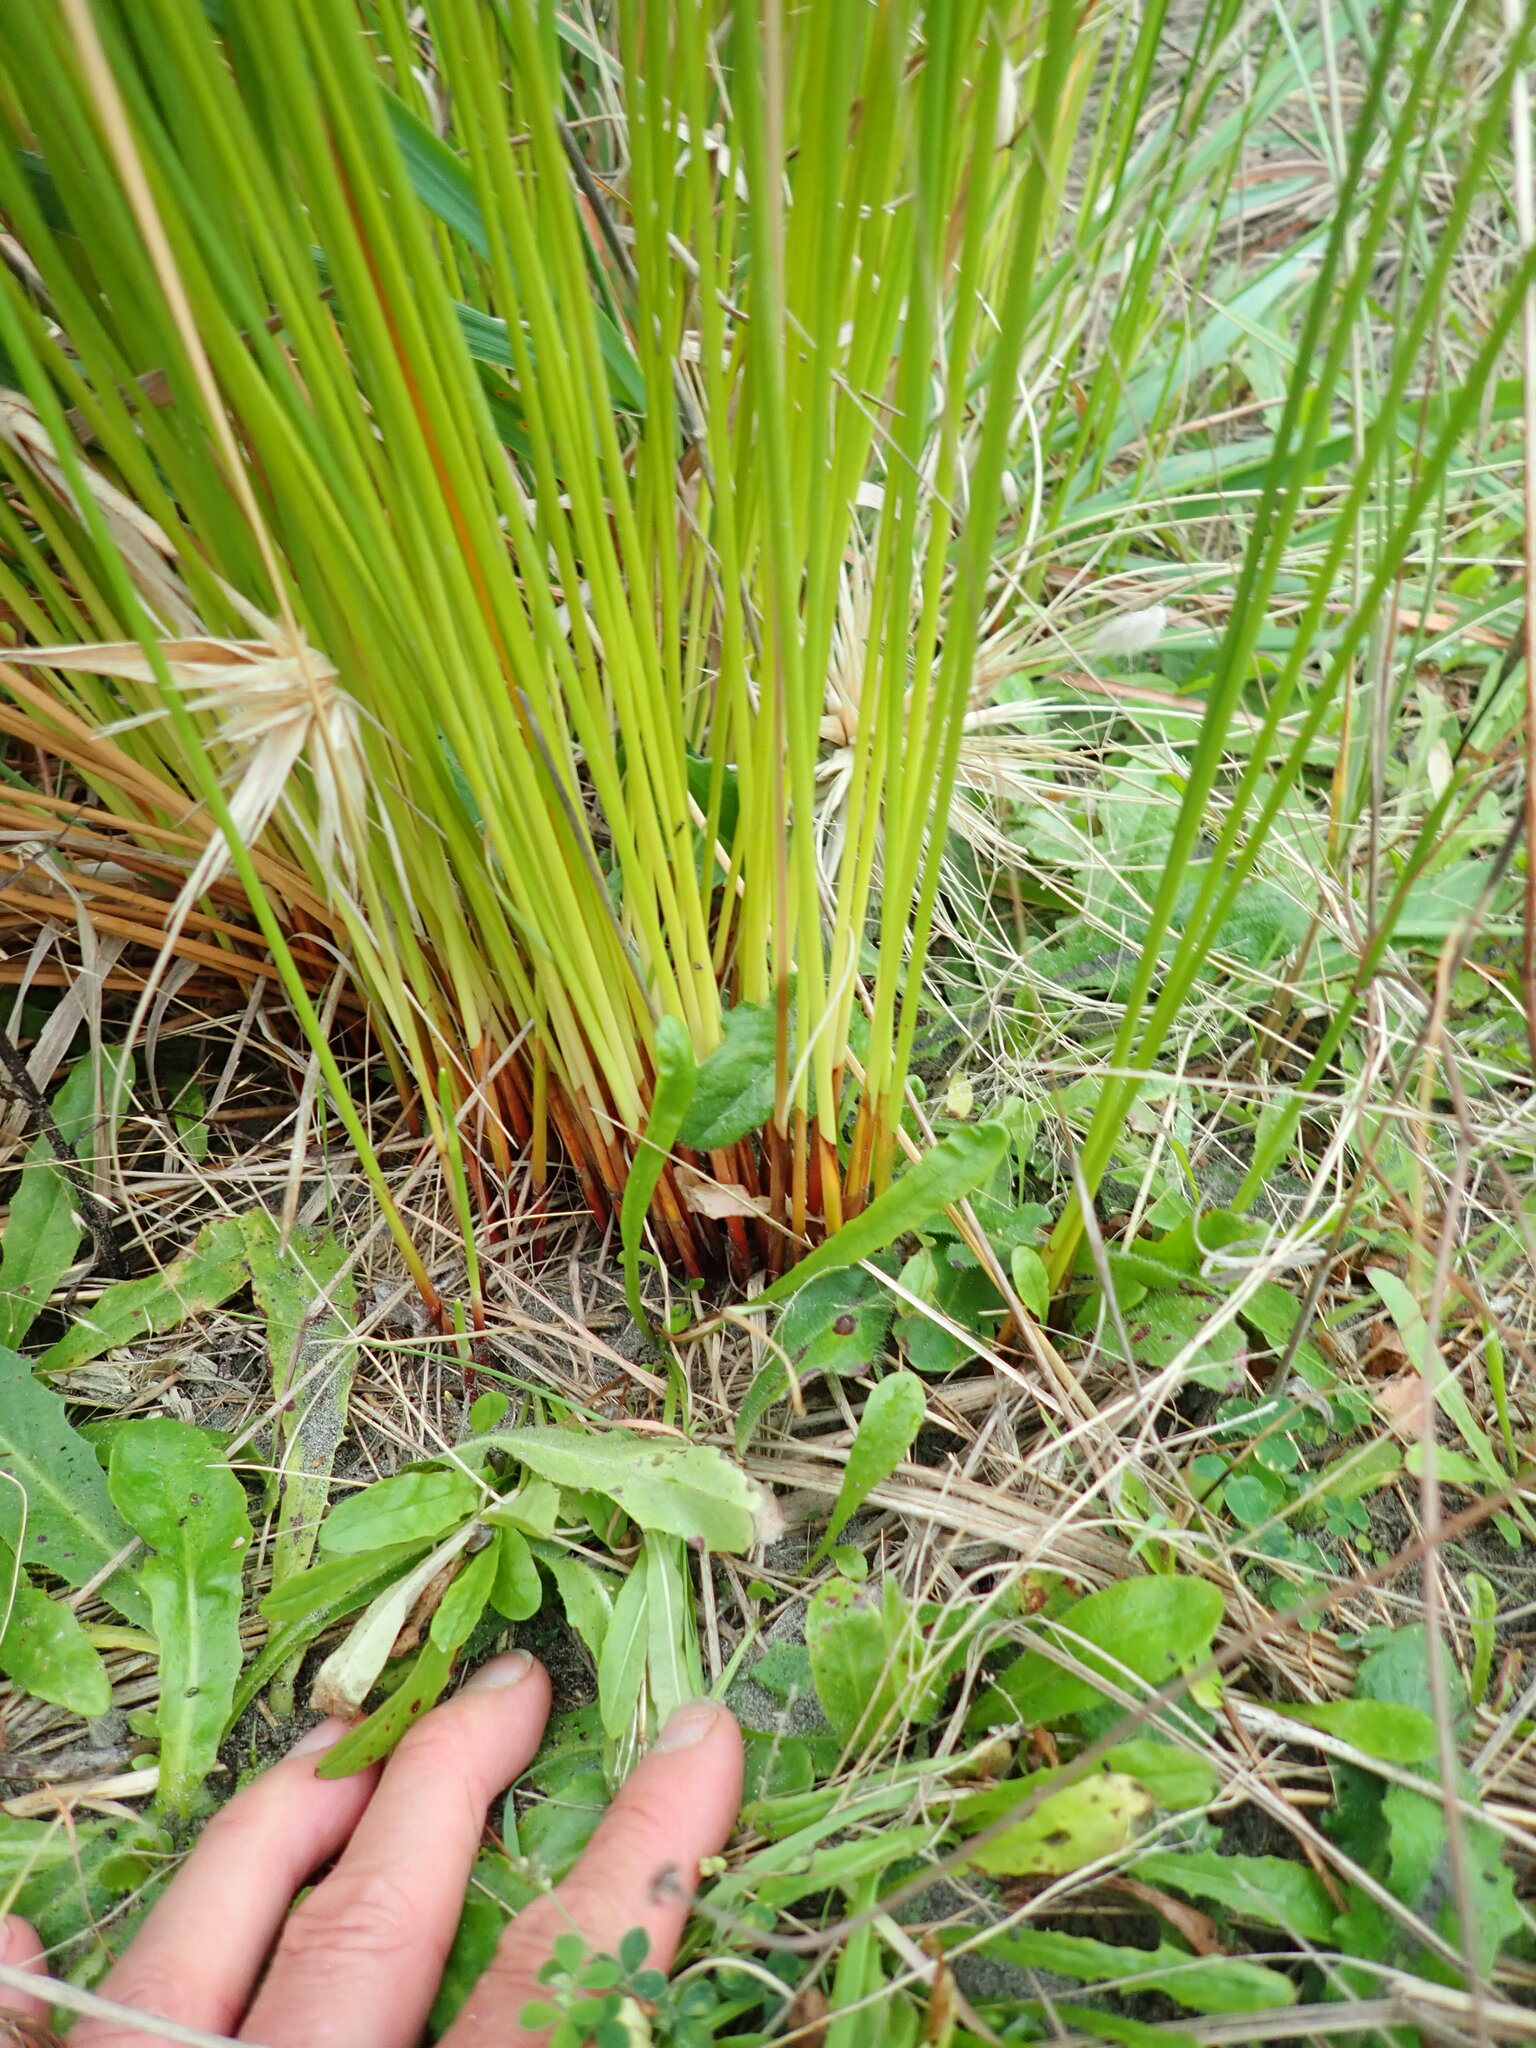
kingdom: Plantae
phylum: Tracheophyta
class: Liliopsida
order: Poales
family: Cyperaceae
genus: Ficinia
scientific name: Ficinia nodosa
